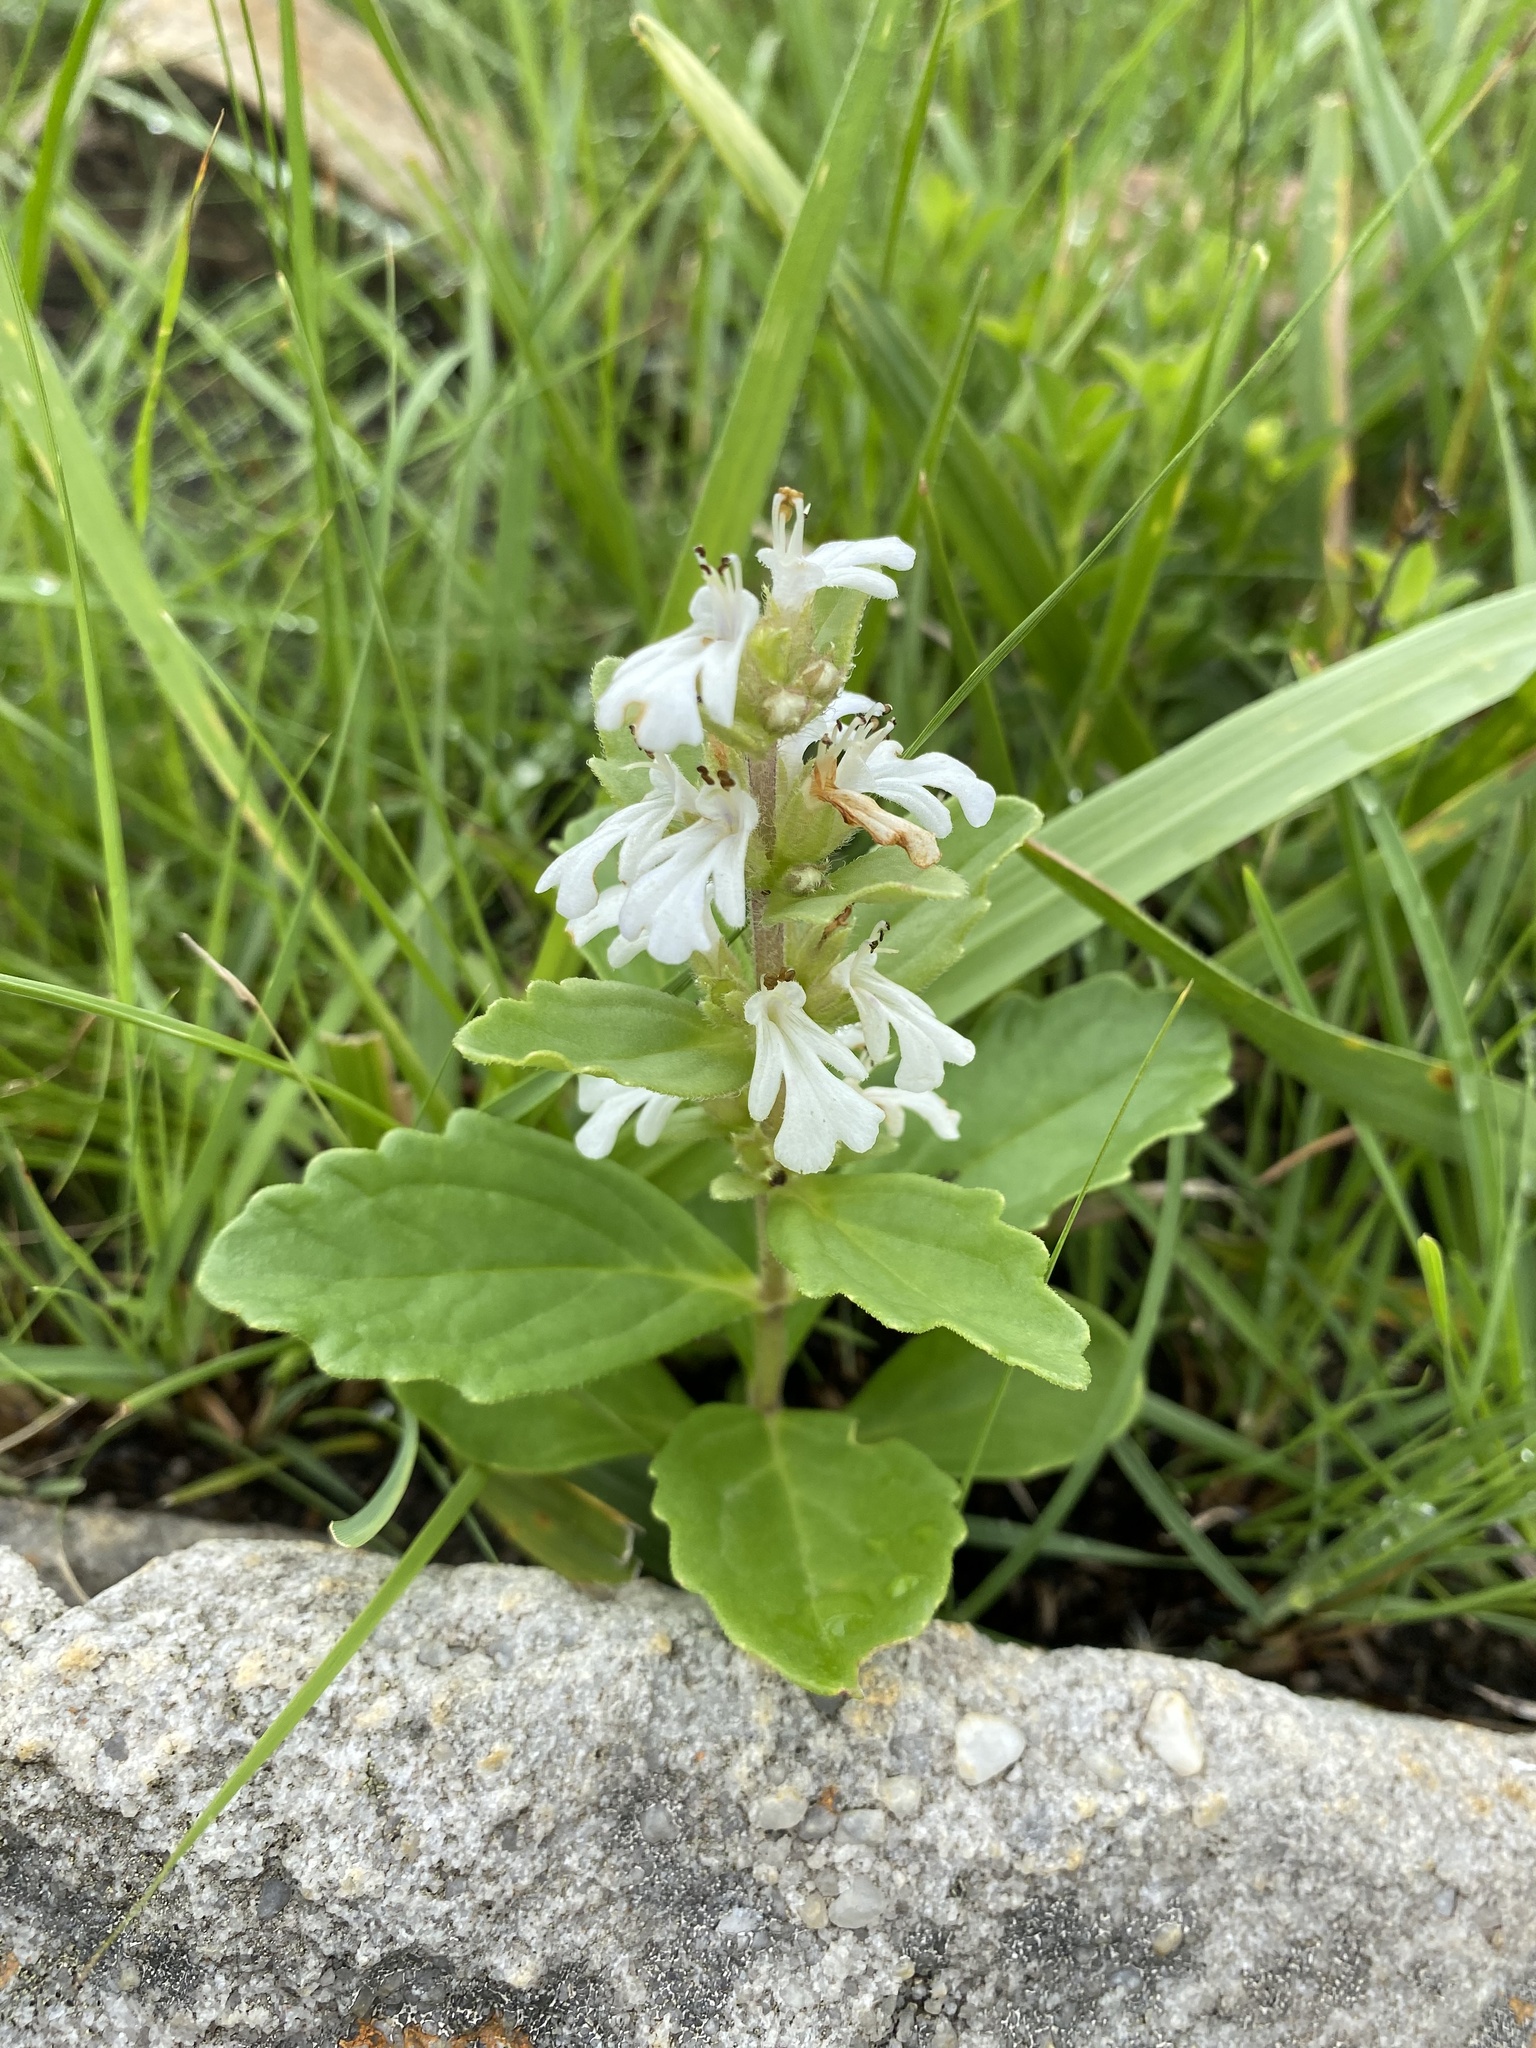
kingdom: Plantae
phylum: Tracheophyta
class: Magnoliopsida
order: Lamiales
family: Lamiaceae
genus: Ajuga
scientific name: Ajuga ophrydis
